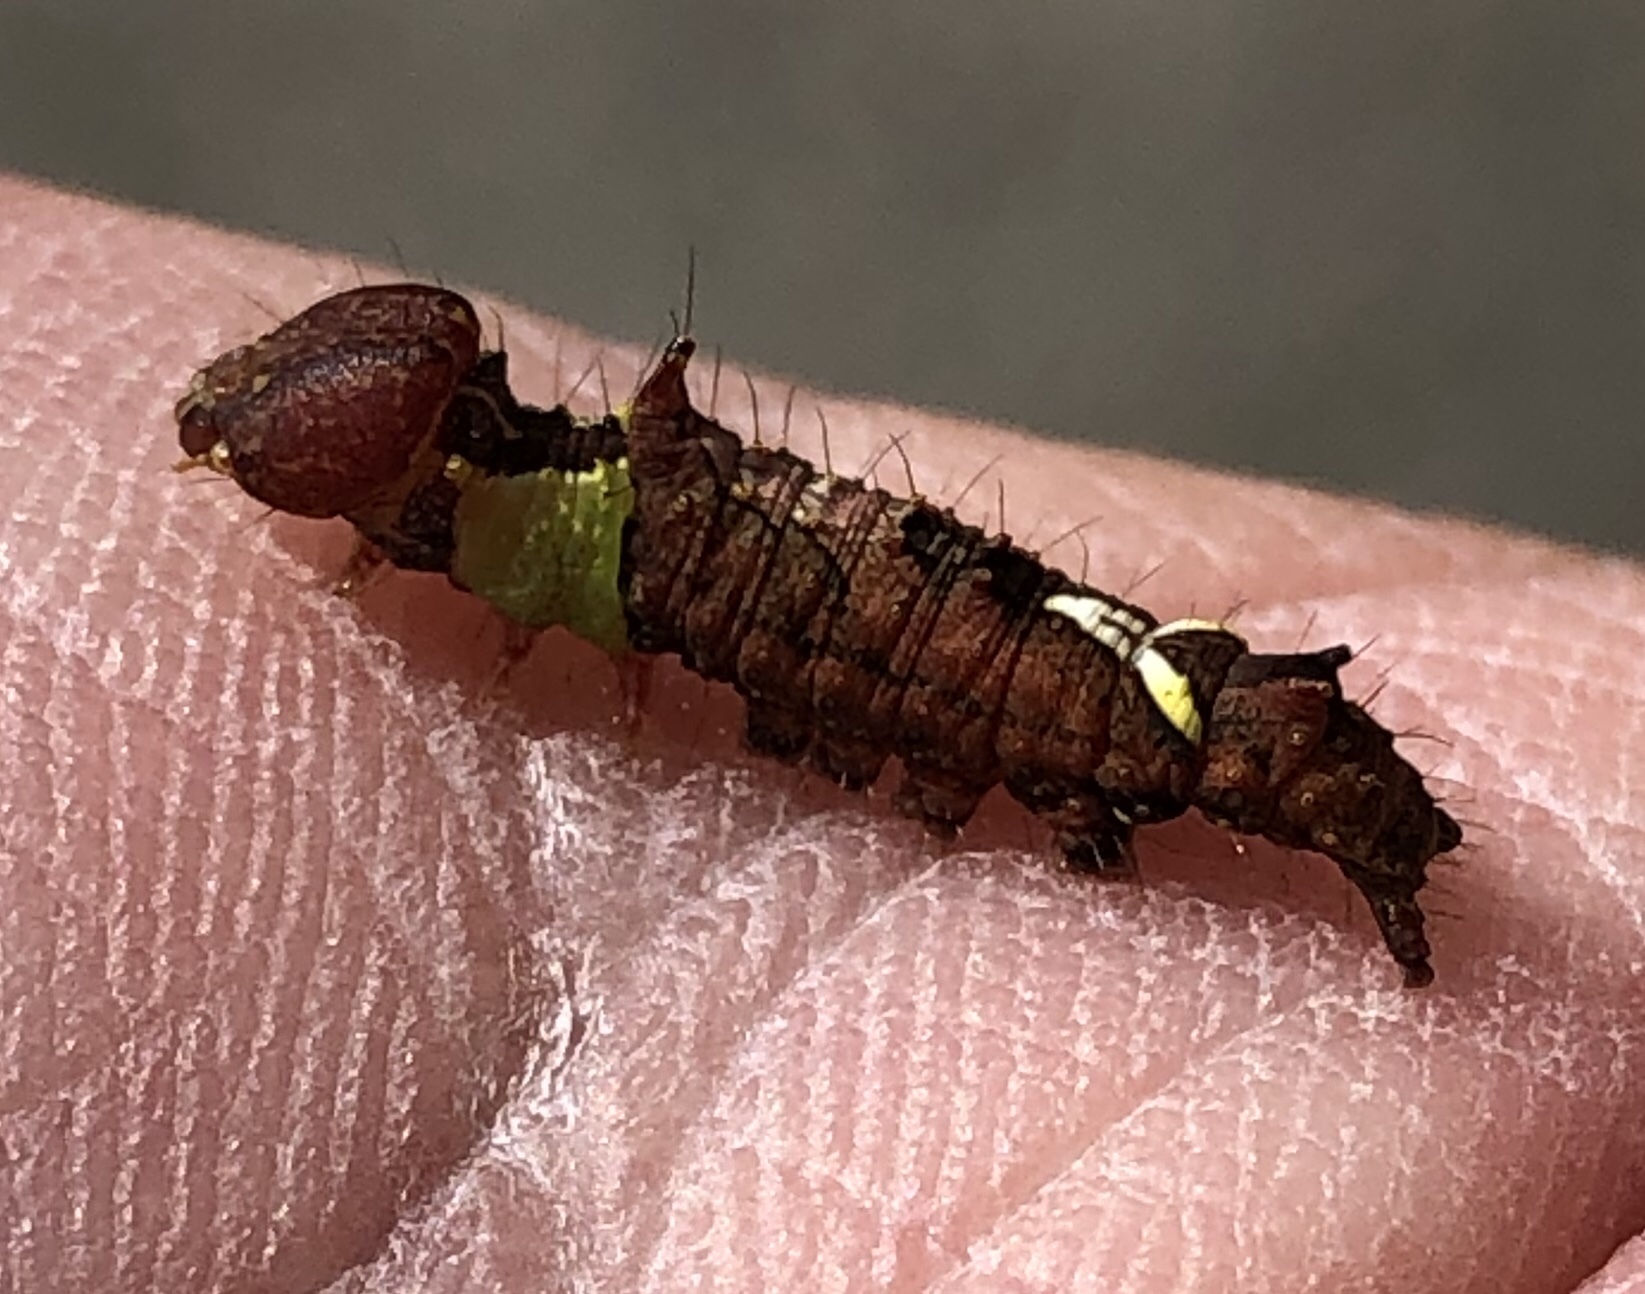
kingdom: Animalia
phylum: Arthropoda
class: Insecta
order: Lepidoptera
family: Notodontidae
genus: Schizura
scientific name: Schizura ipomaeae
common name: Morning-glory prominent
